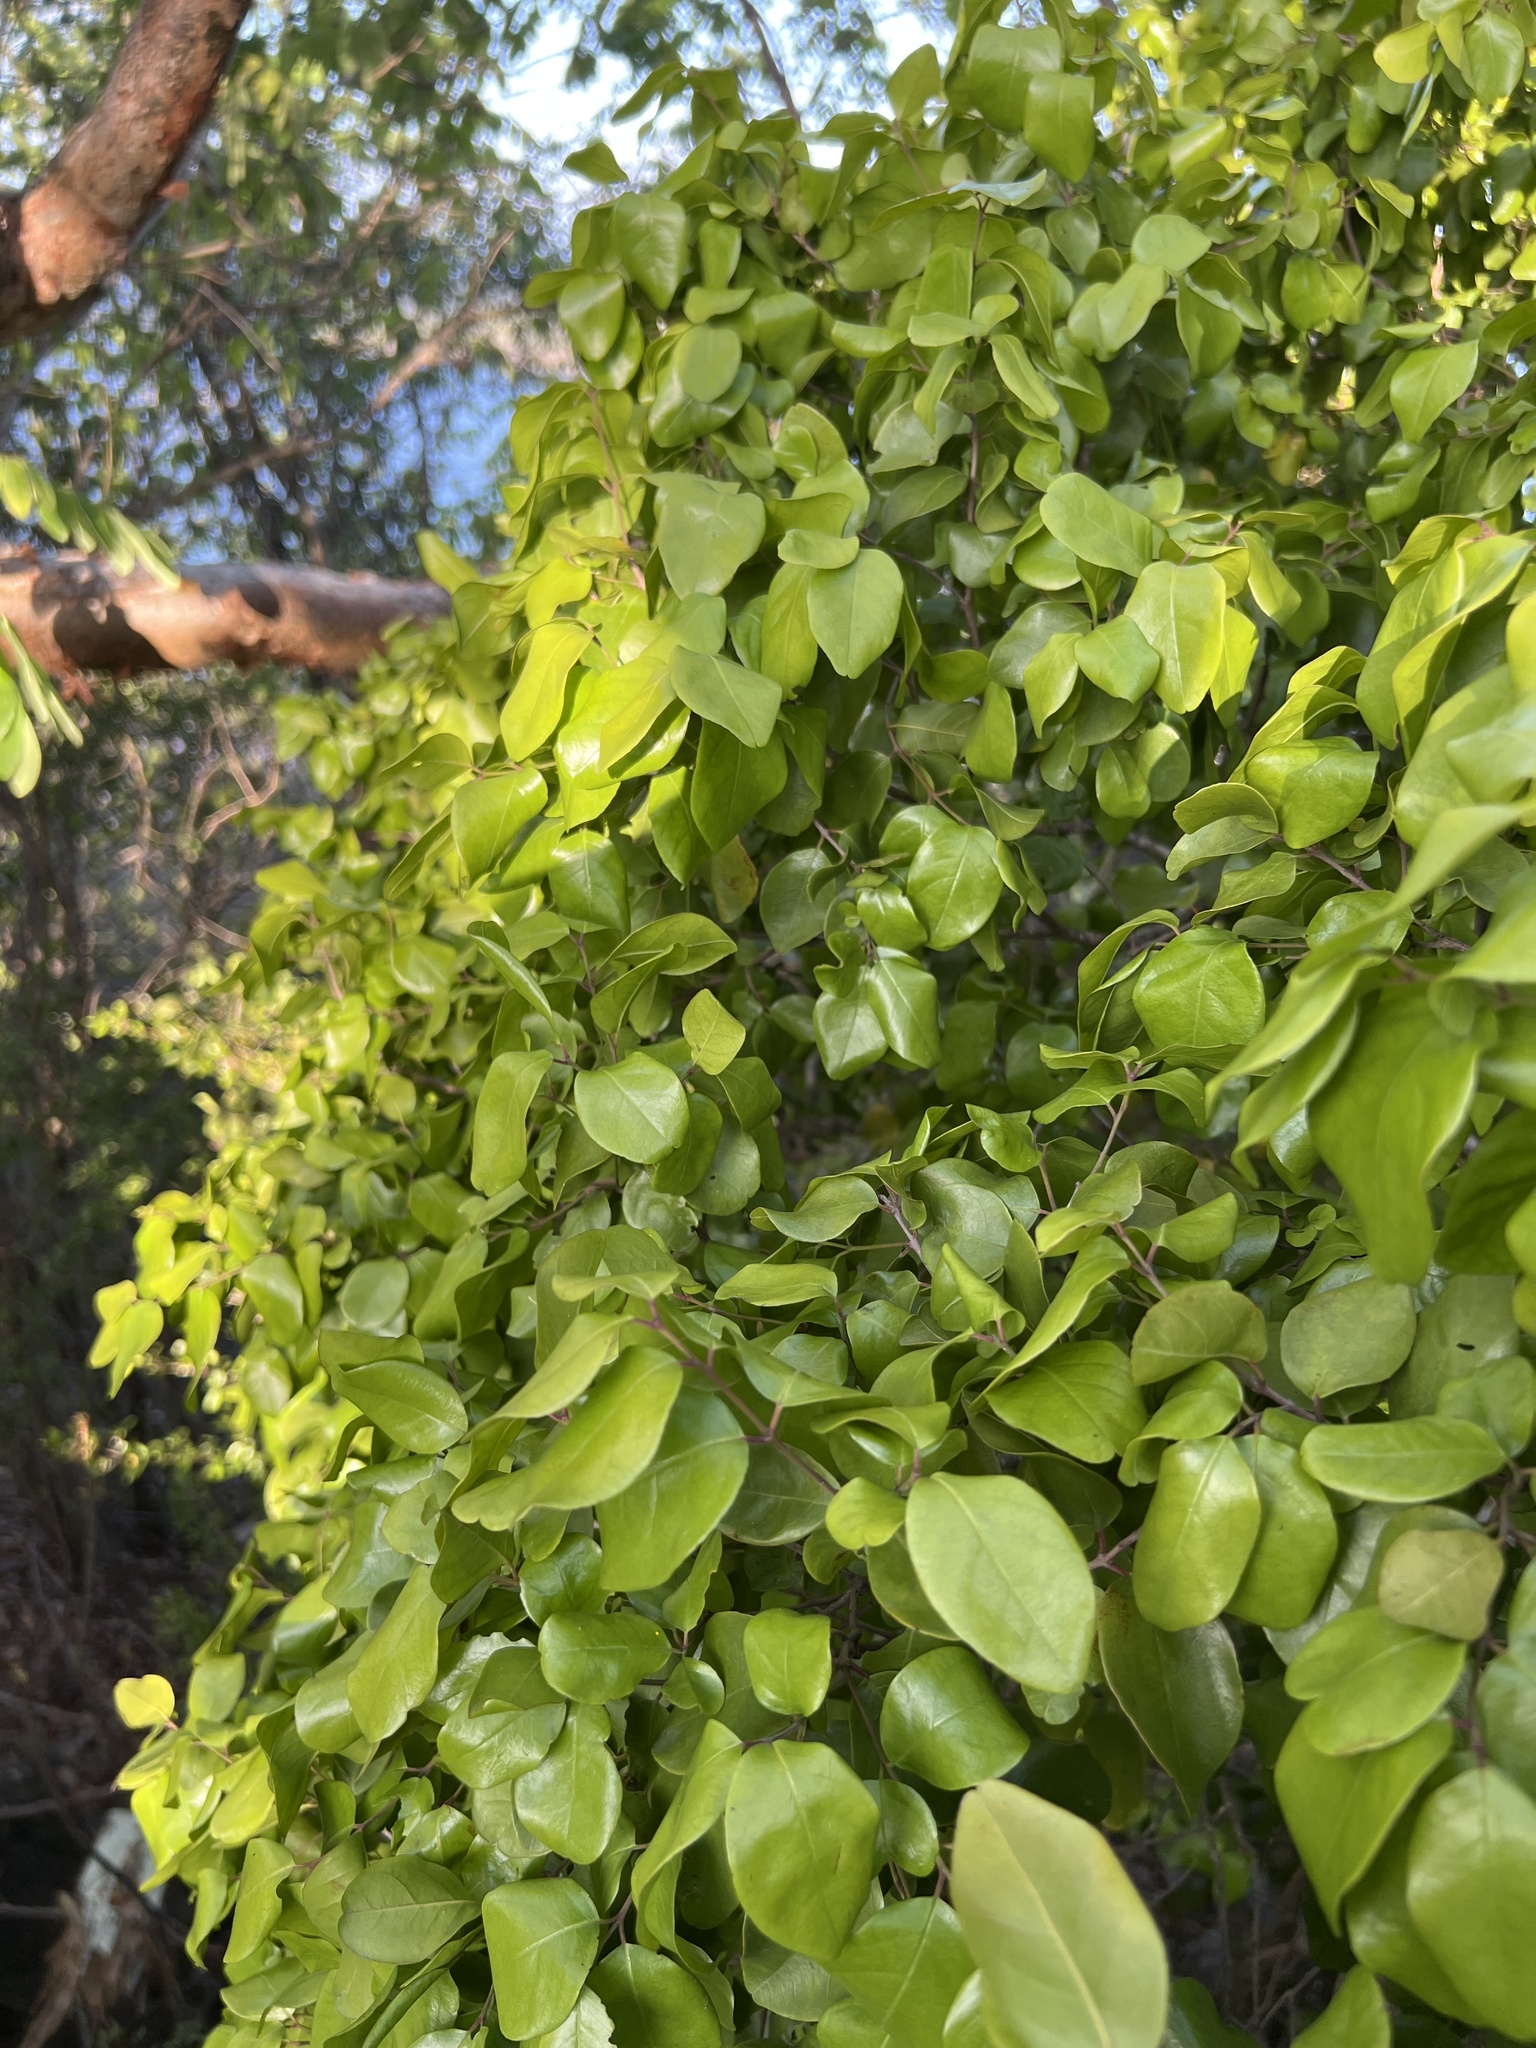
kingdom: Plantae
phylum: Tracheophyta
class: Magnoliopsida
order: Malpighiales
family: Malpighiaceae
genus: Heteropterys
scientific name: Heteropterys purpurea
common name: Bull withe
